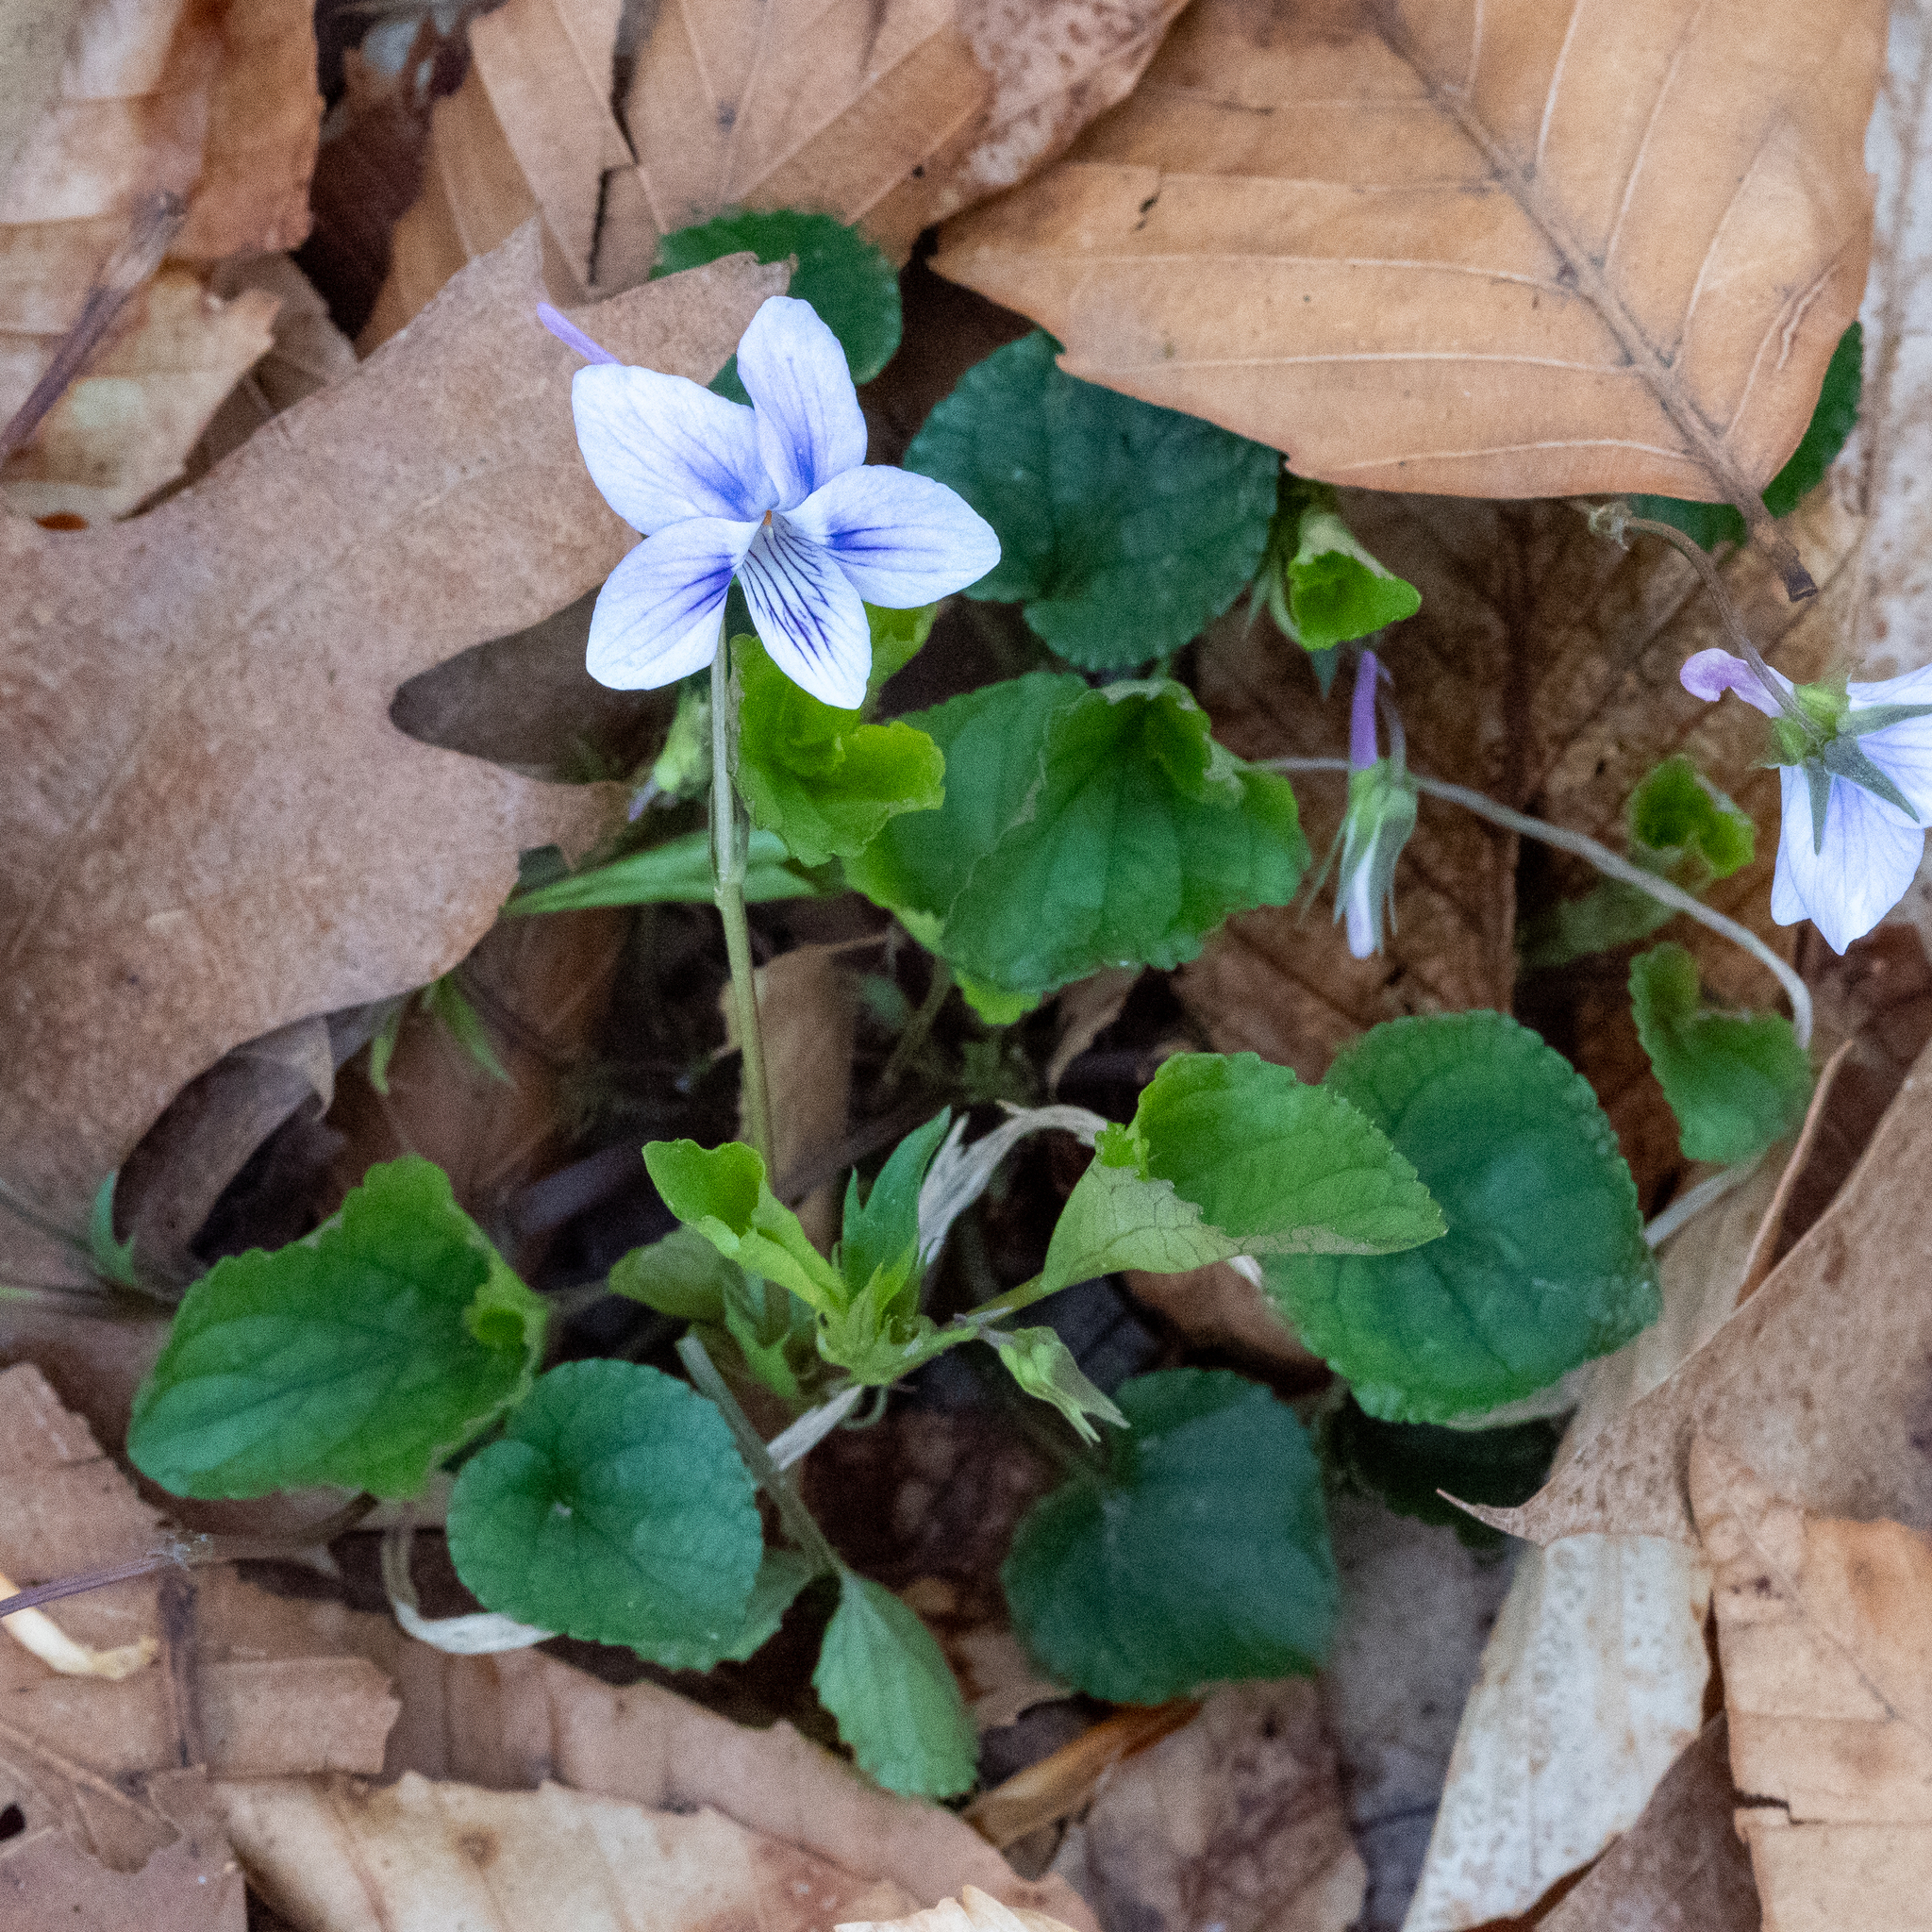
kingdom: Plantae
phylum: Tracheophyta
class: Magnoliopsida
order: Malpighiales
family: Violaceae
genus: Viola
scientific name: Viola rostrata
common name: Long-spur violet
